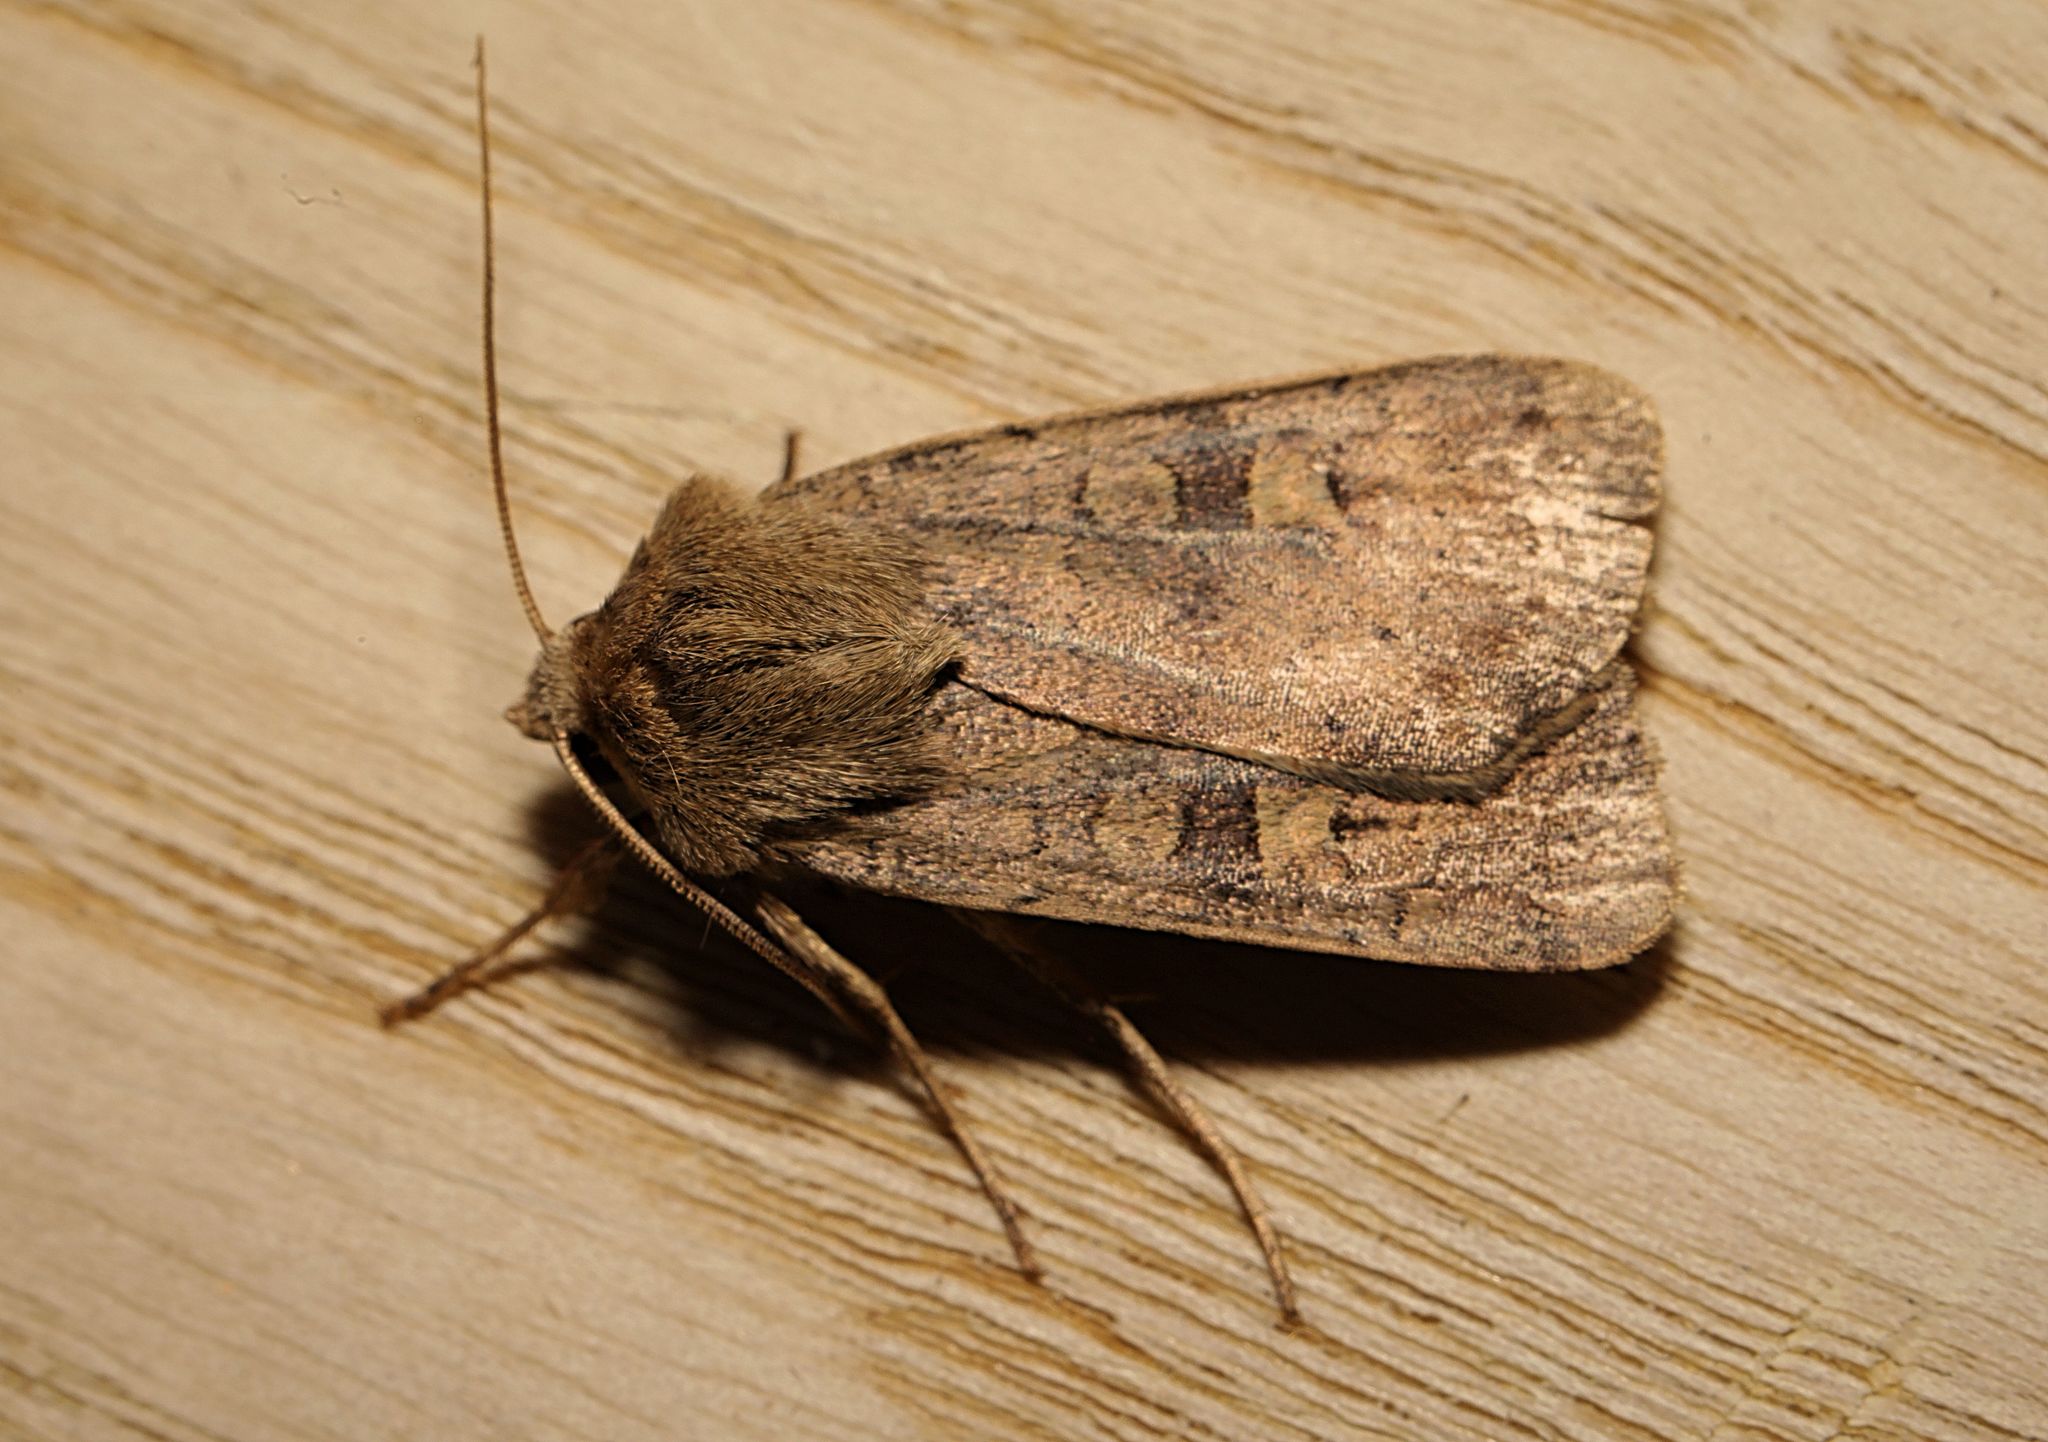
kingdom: Animalia
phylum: Arthropoda
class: Insecta
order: Lepidoptera
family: Noctuidae
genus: Xestia
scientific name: Xestia xanthographa
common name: Square-spot rustic
